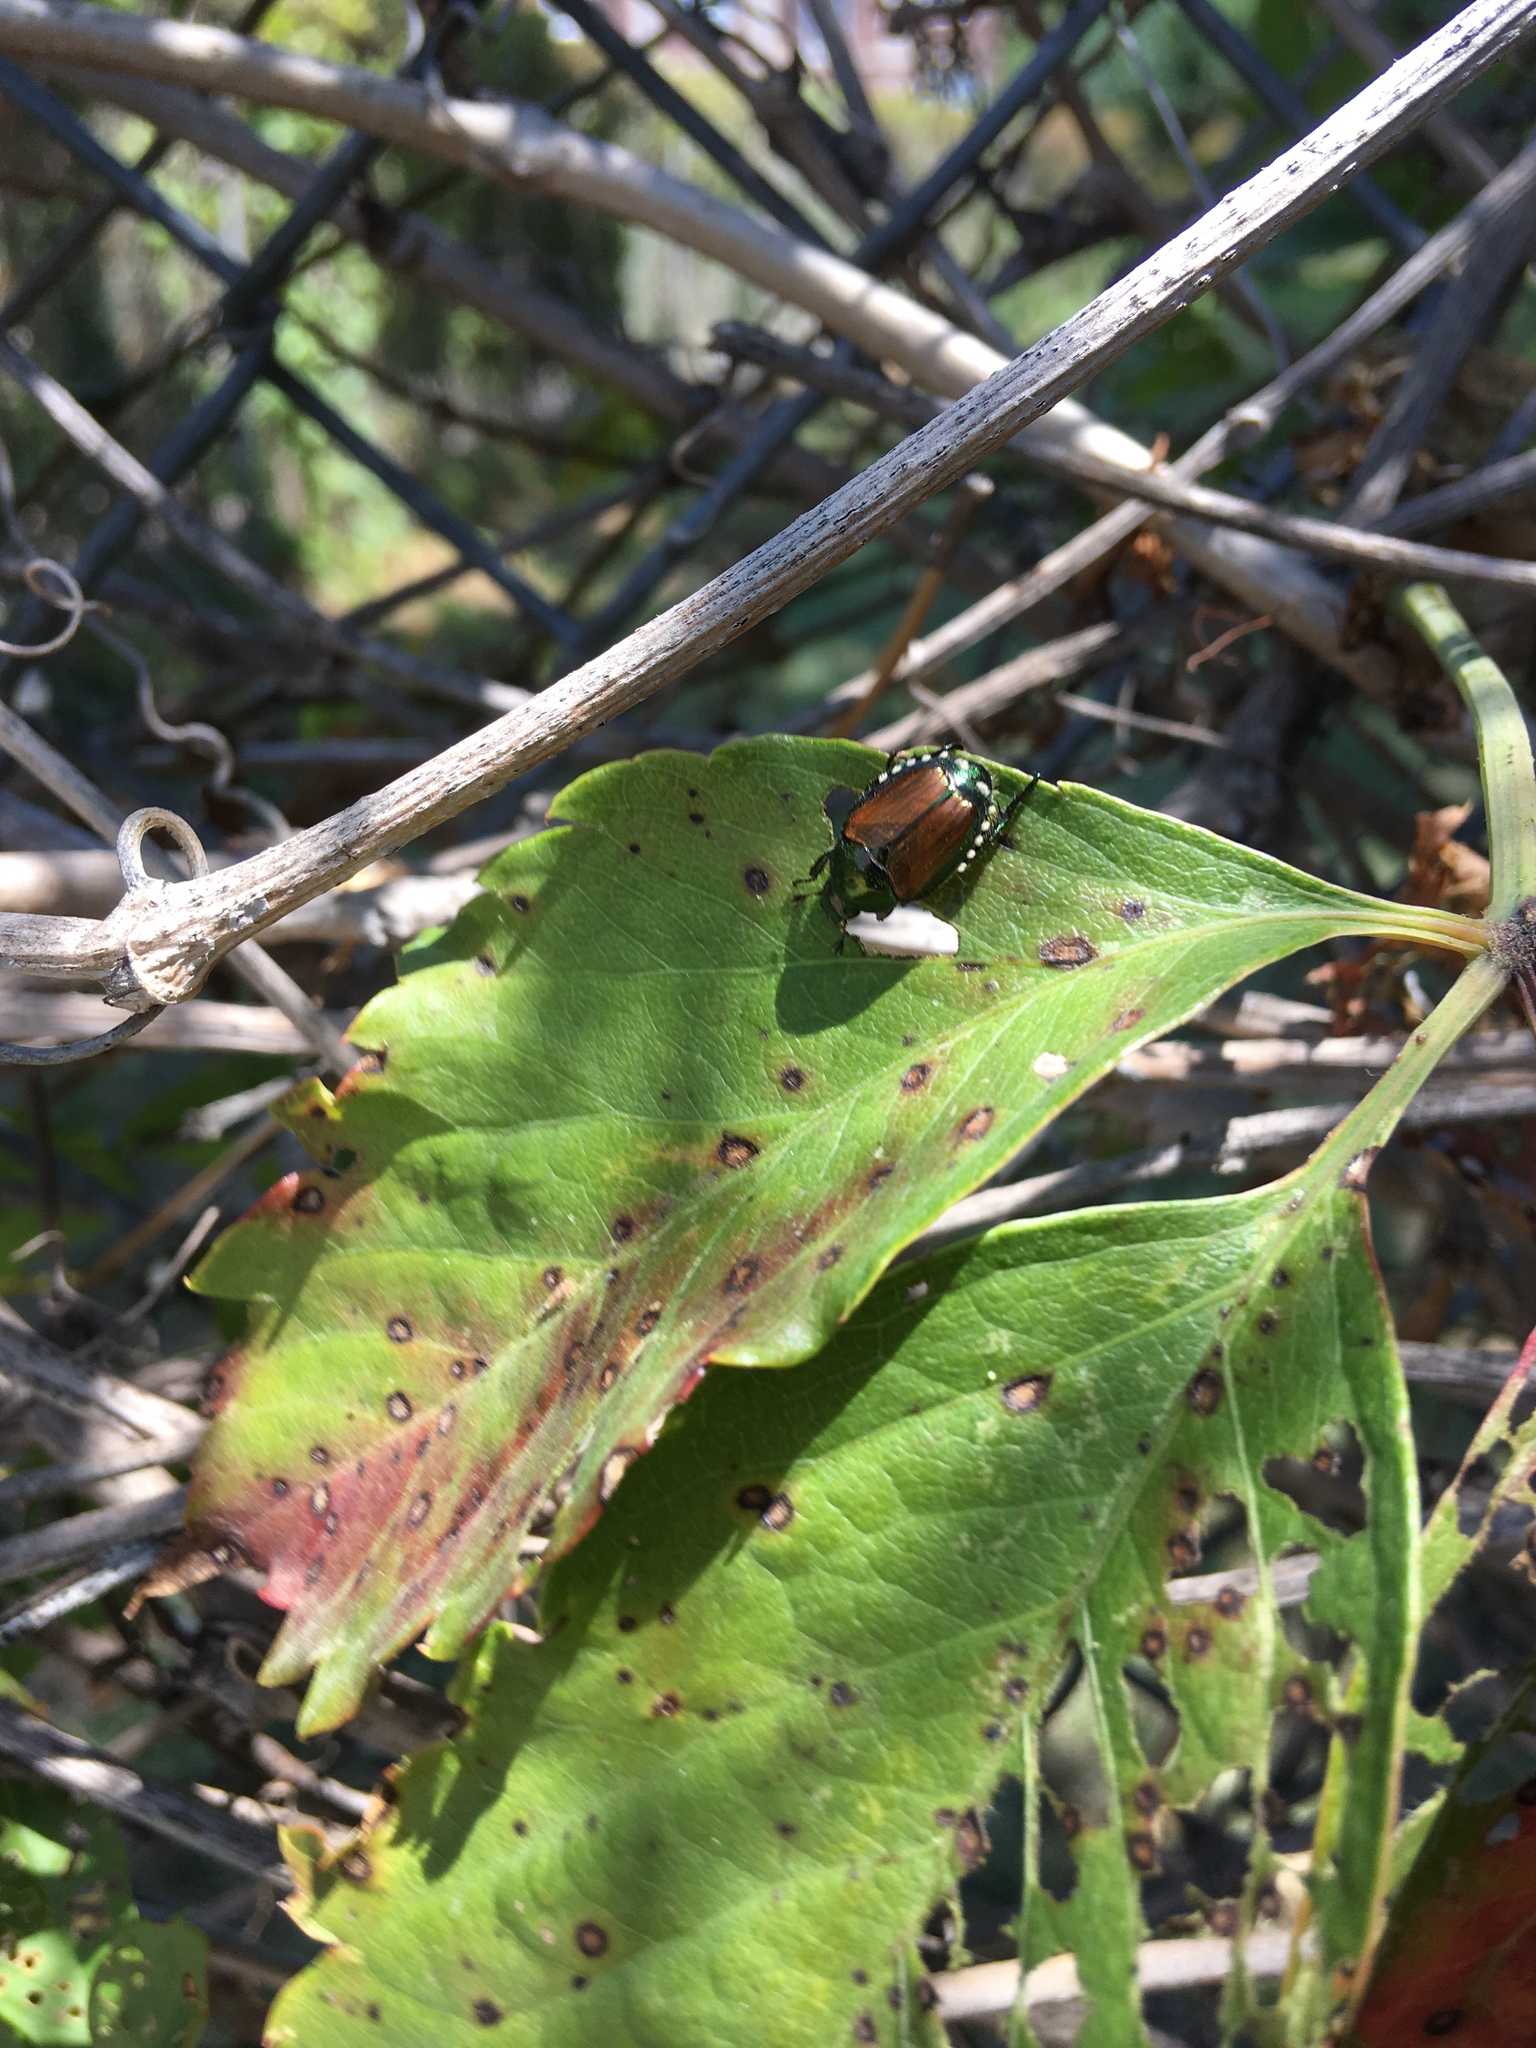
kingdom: Animalia
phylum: Arthropoda
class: Insecta
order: Coleoptera
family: Scarabaeidae
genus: Popillia
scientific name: Popillia japonica
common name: Japanese beetle
